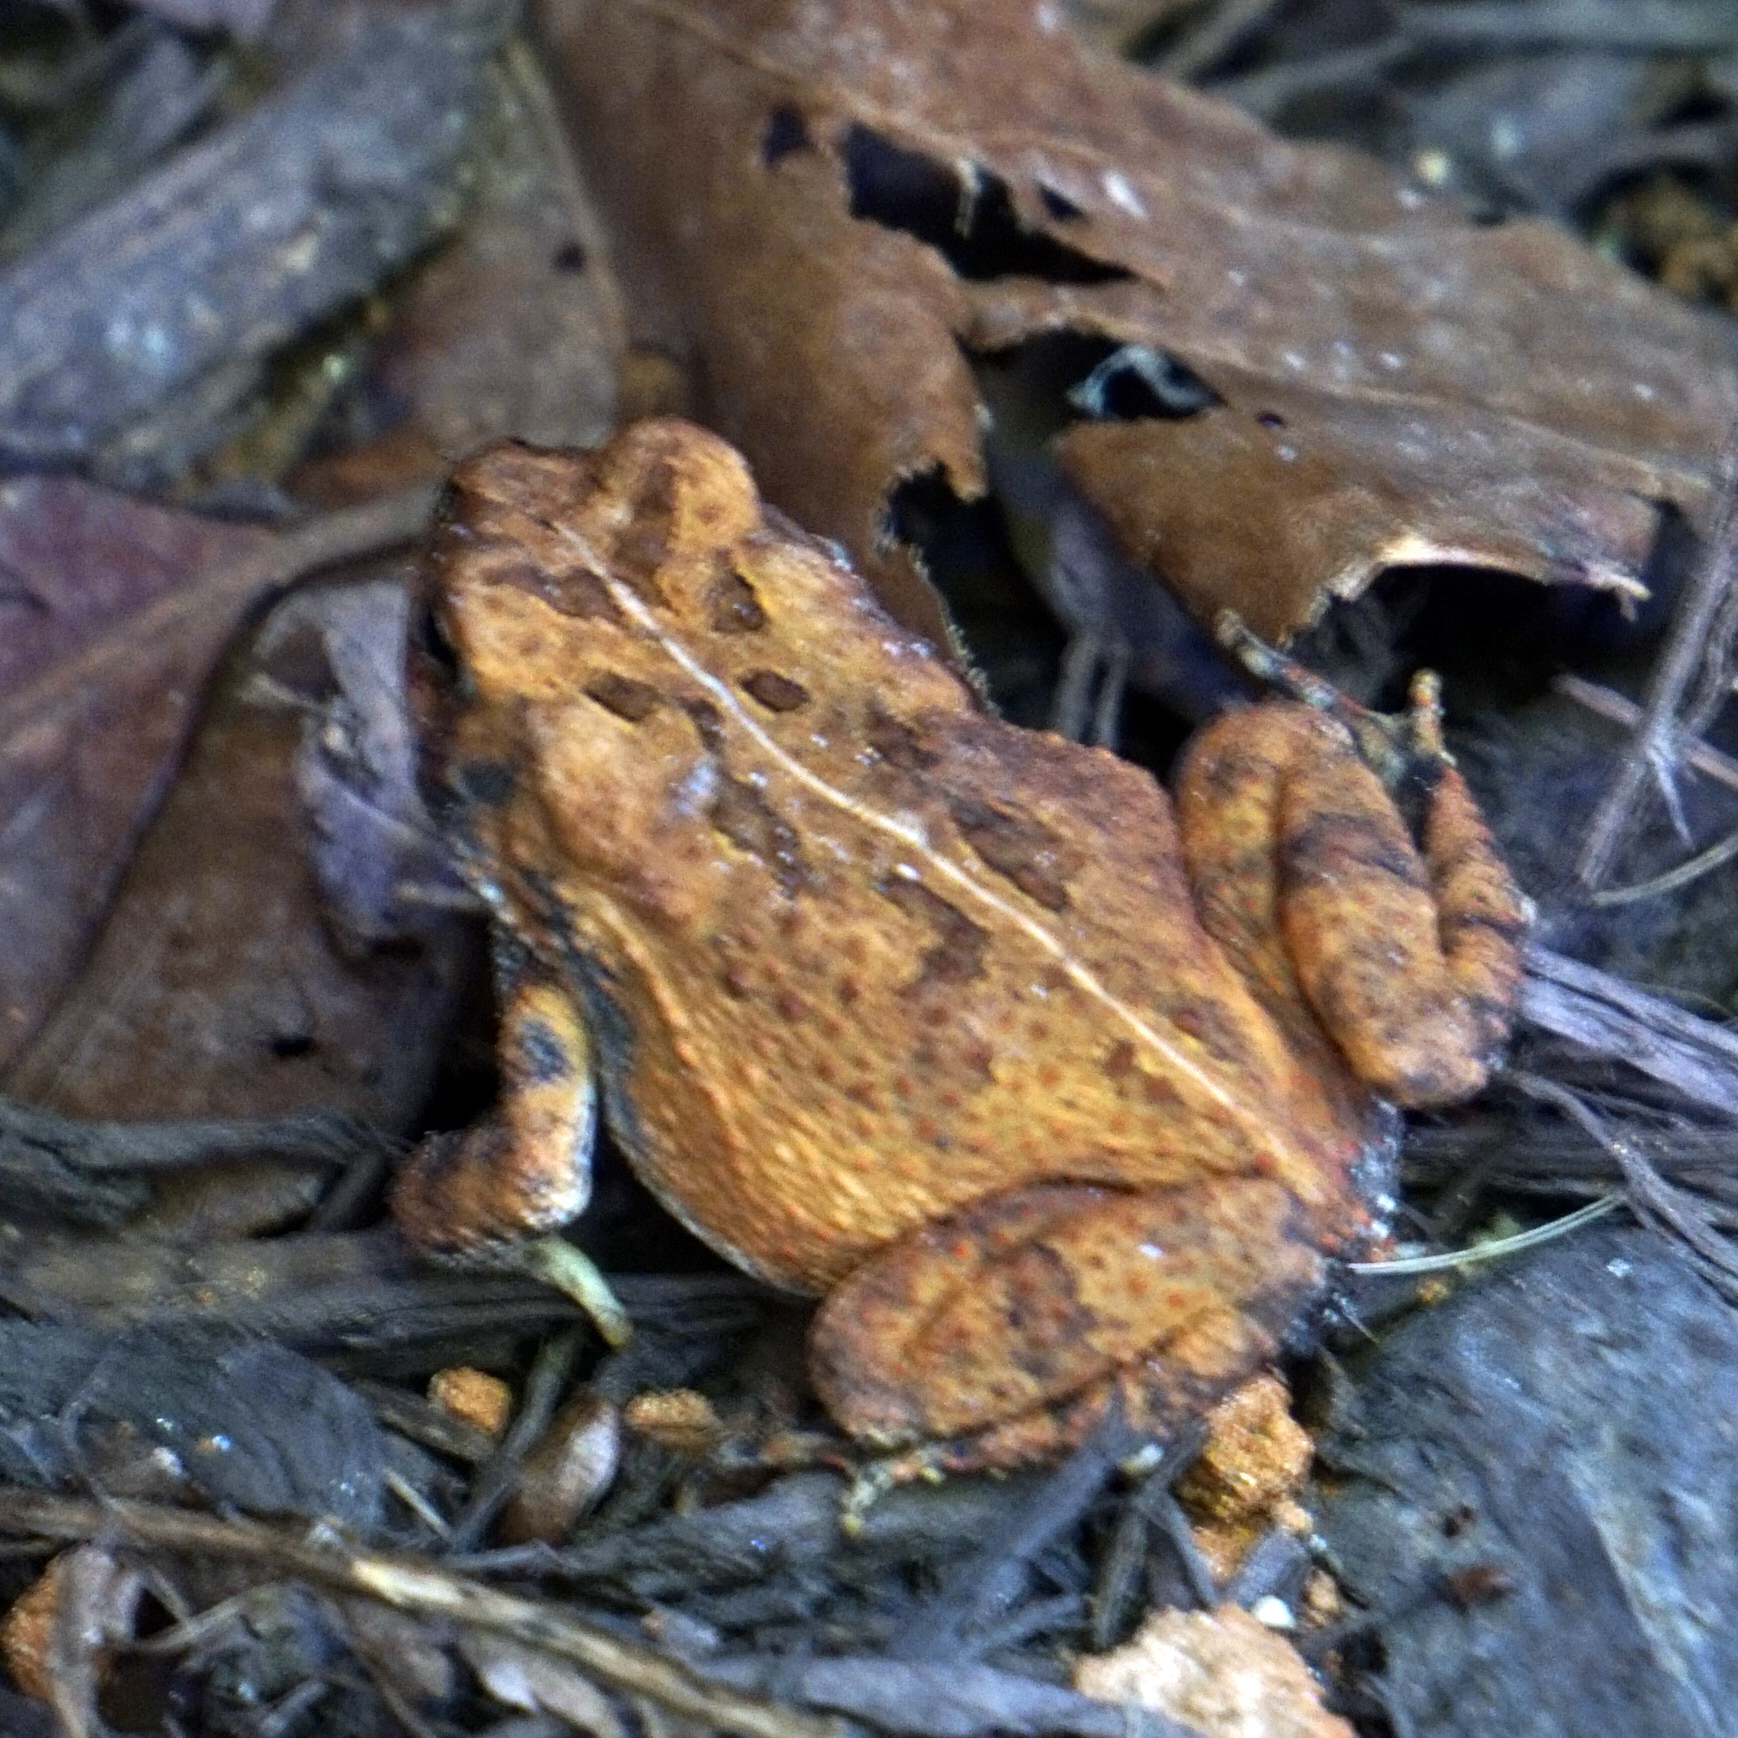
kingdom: Animalia
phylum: Chordata
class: Amphibia
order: Anura
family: Bufonidae
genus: Anaxyrus
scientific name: Anaxyrus fowleri
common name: Fowler's toad
